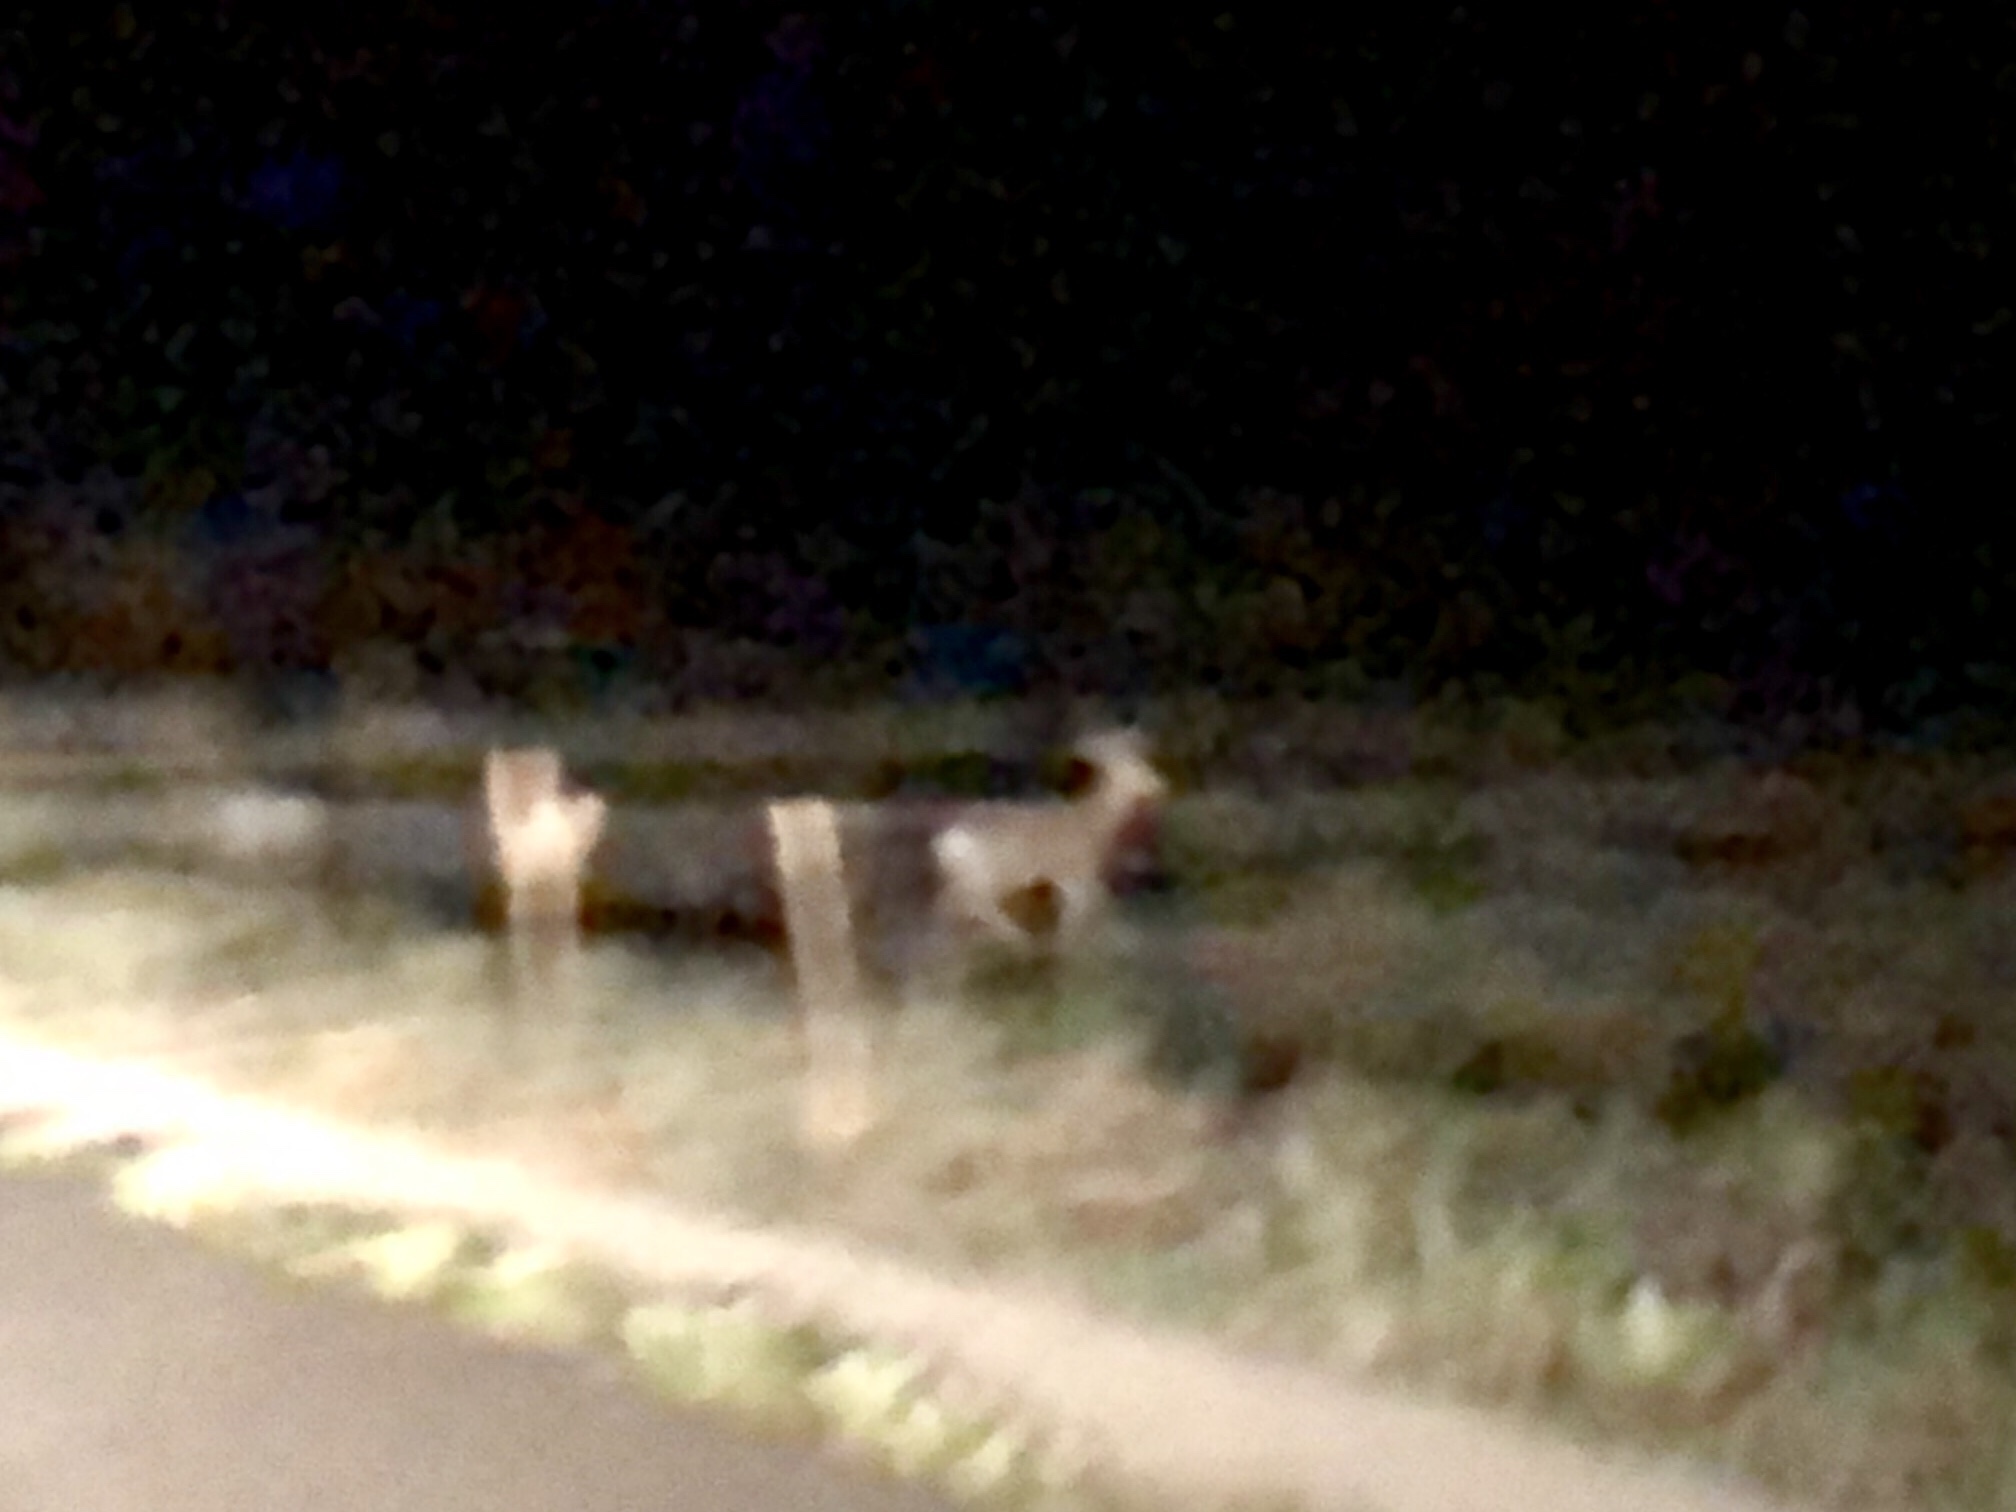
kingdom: Animalia
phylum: Chordata
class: Mammalia
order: Artiodactyla
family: Cervidae
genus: Odocoileus
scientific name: Odocoileus hemionus
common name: Mule deer
